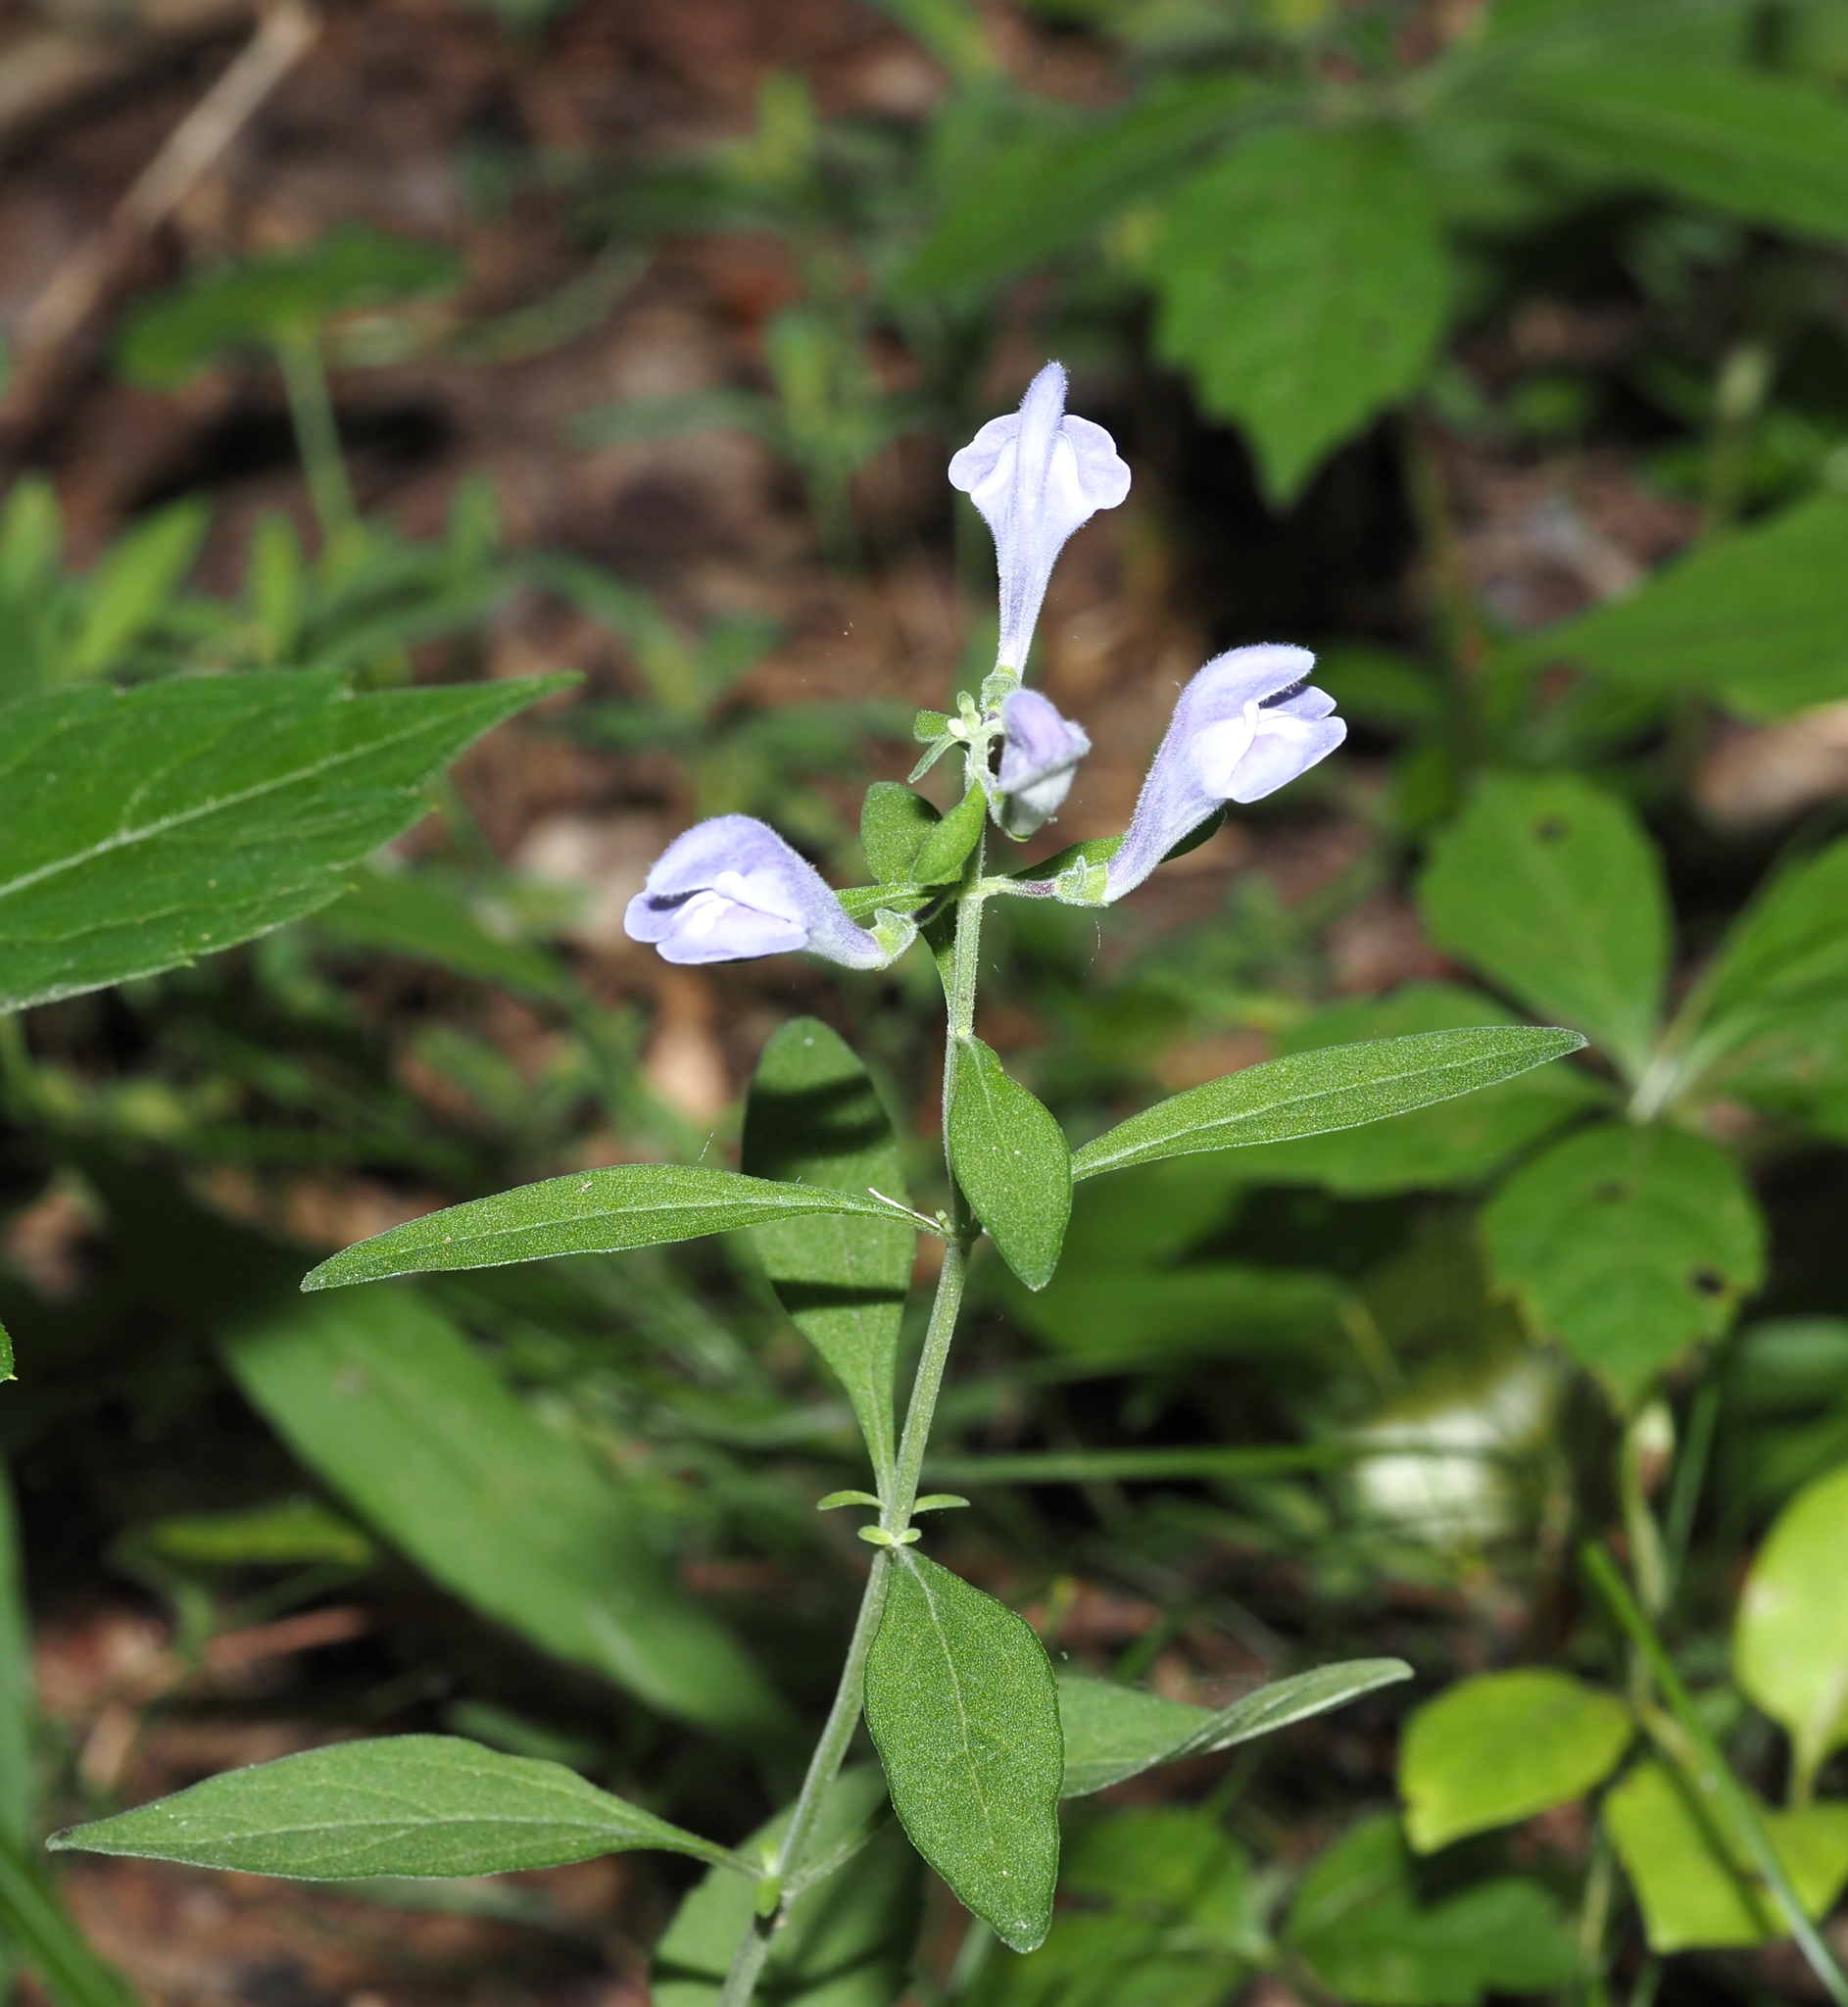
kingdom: Plantae
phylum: Tracheophyta
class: Magnoliopsida
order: Lamiales
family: Lamiaceae
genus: Scutellaria
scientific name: Scutellaria integrifolia
